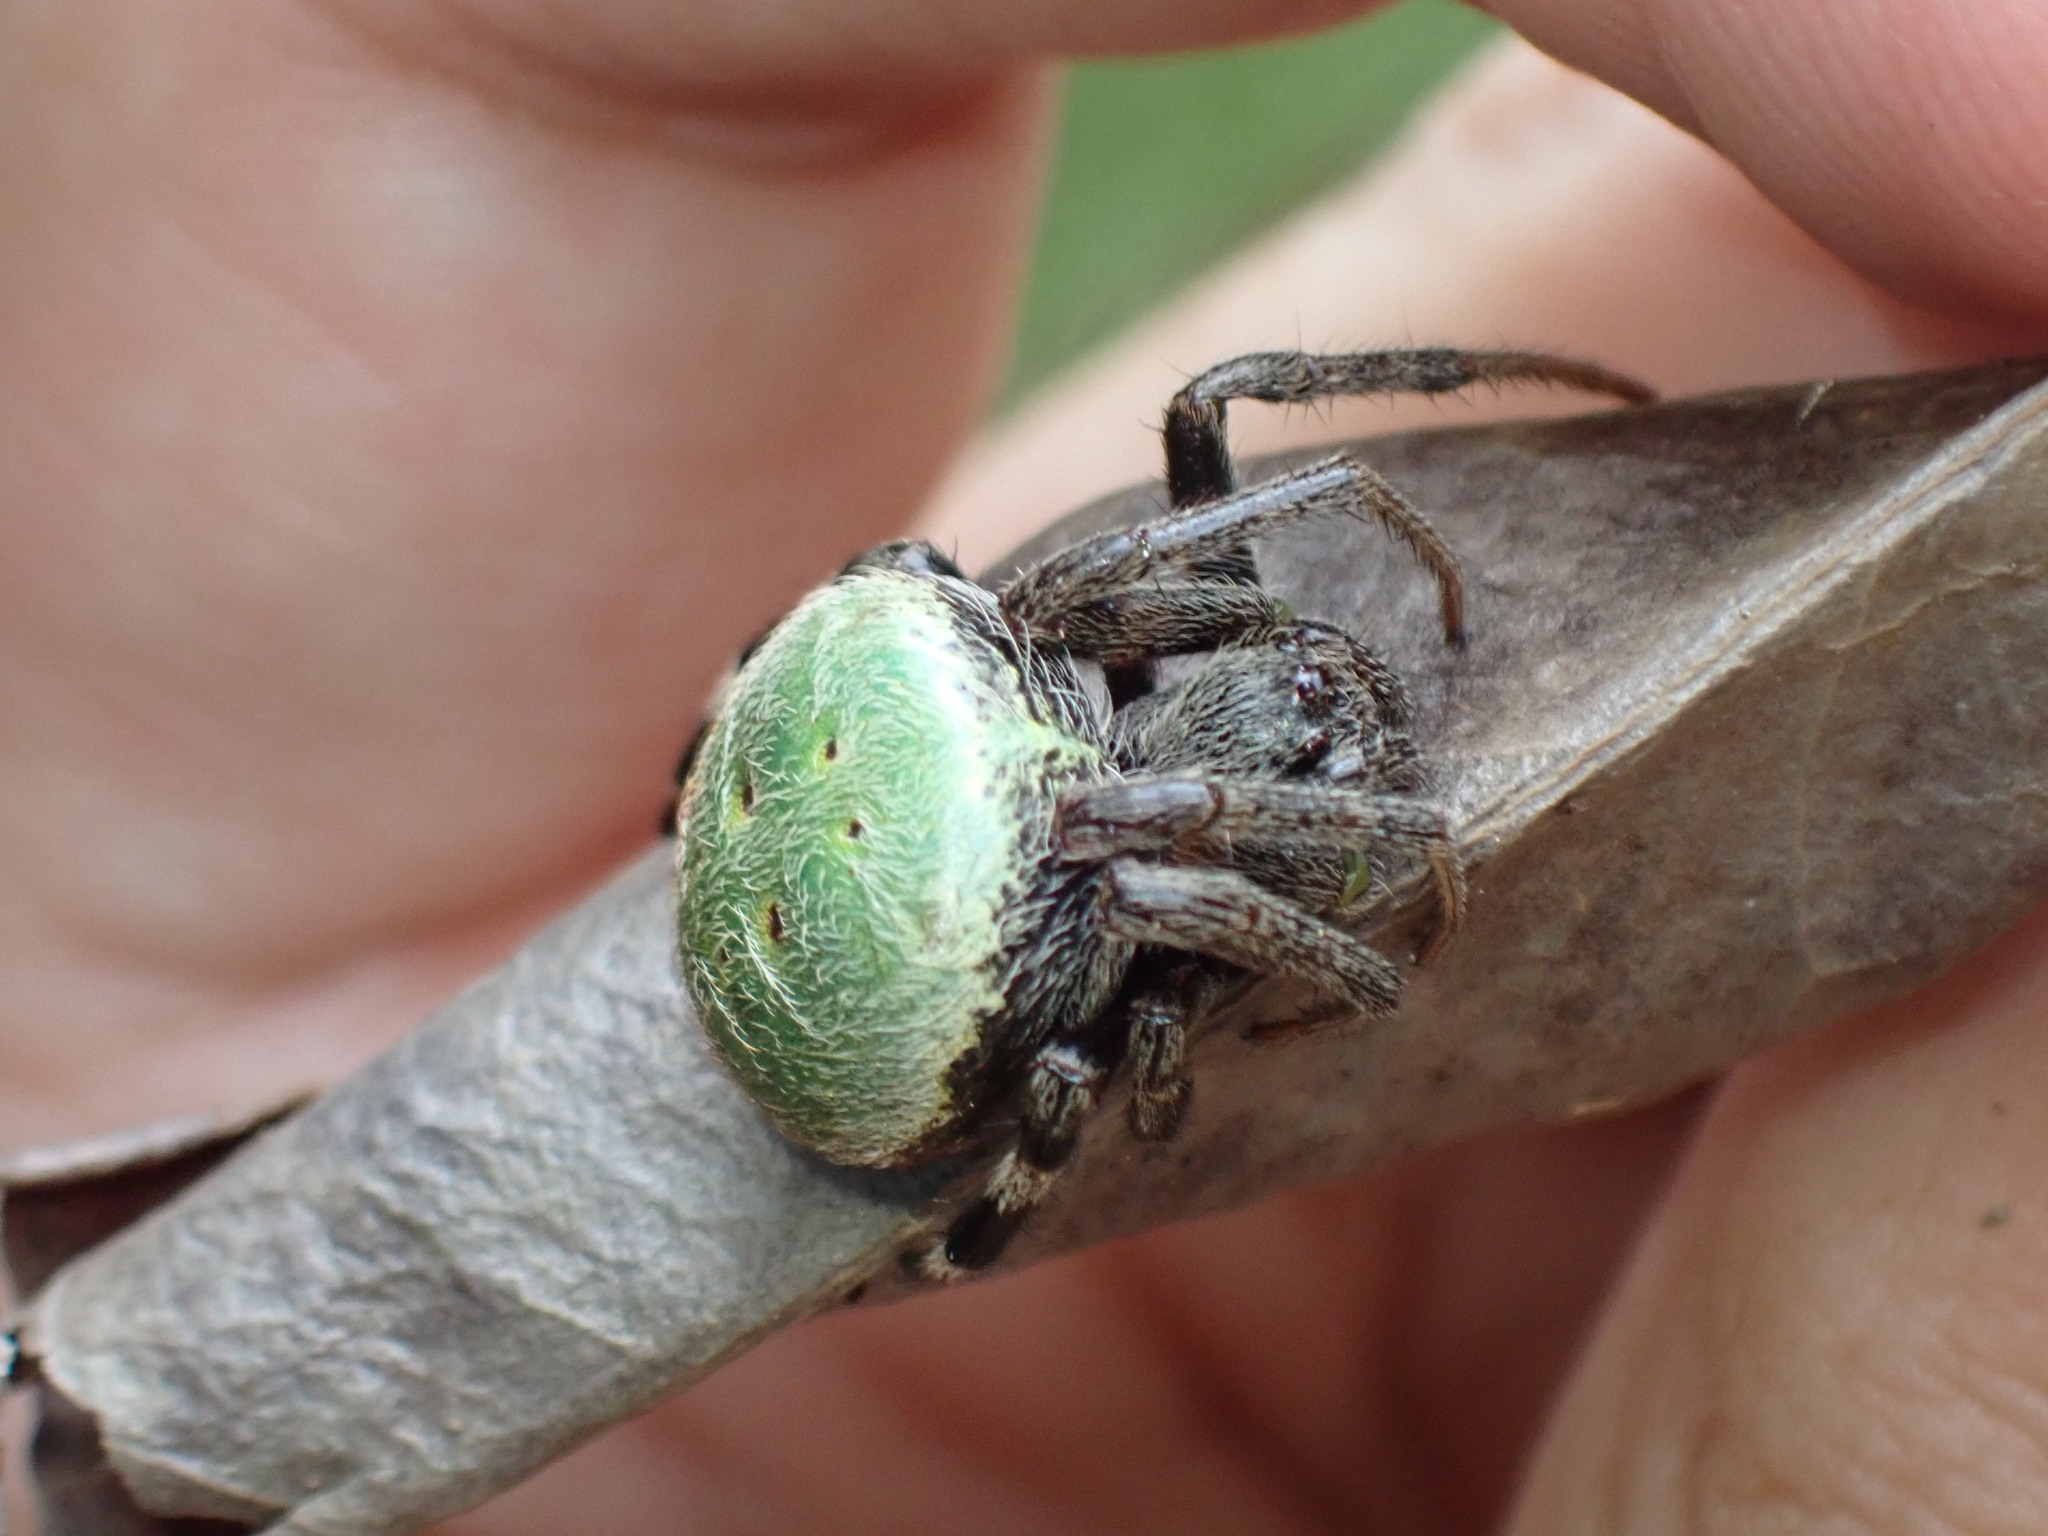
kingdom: Animalia
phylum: Arthropoda
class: Arachnida
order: Araneae
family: Araneidae
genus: Neoscona
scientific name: Neoscona rufipalpis
